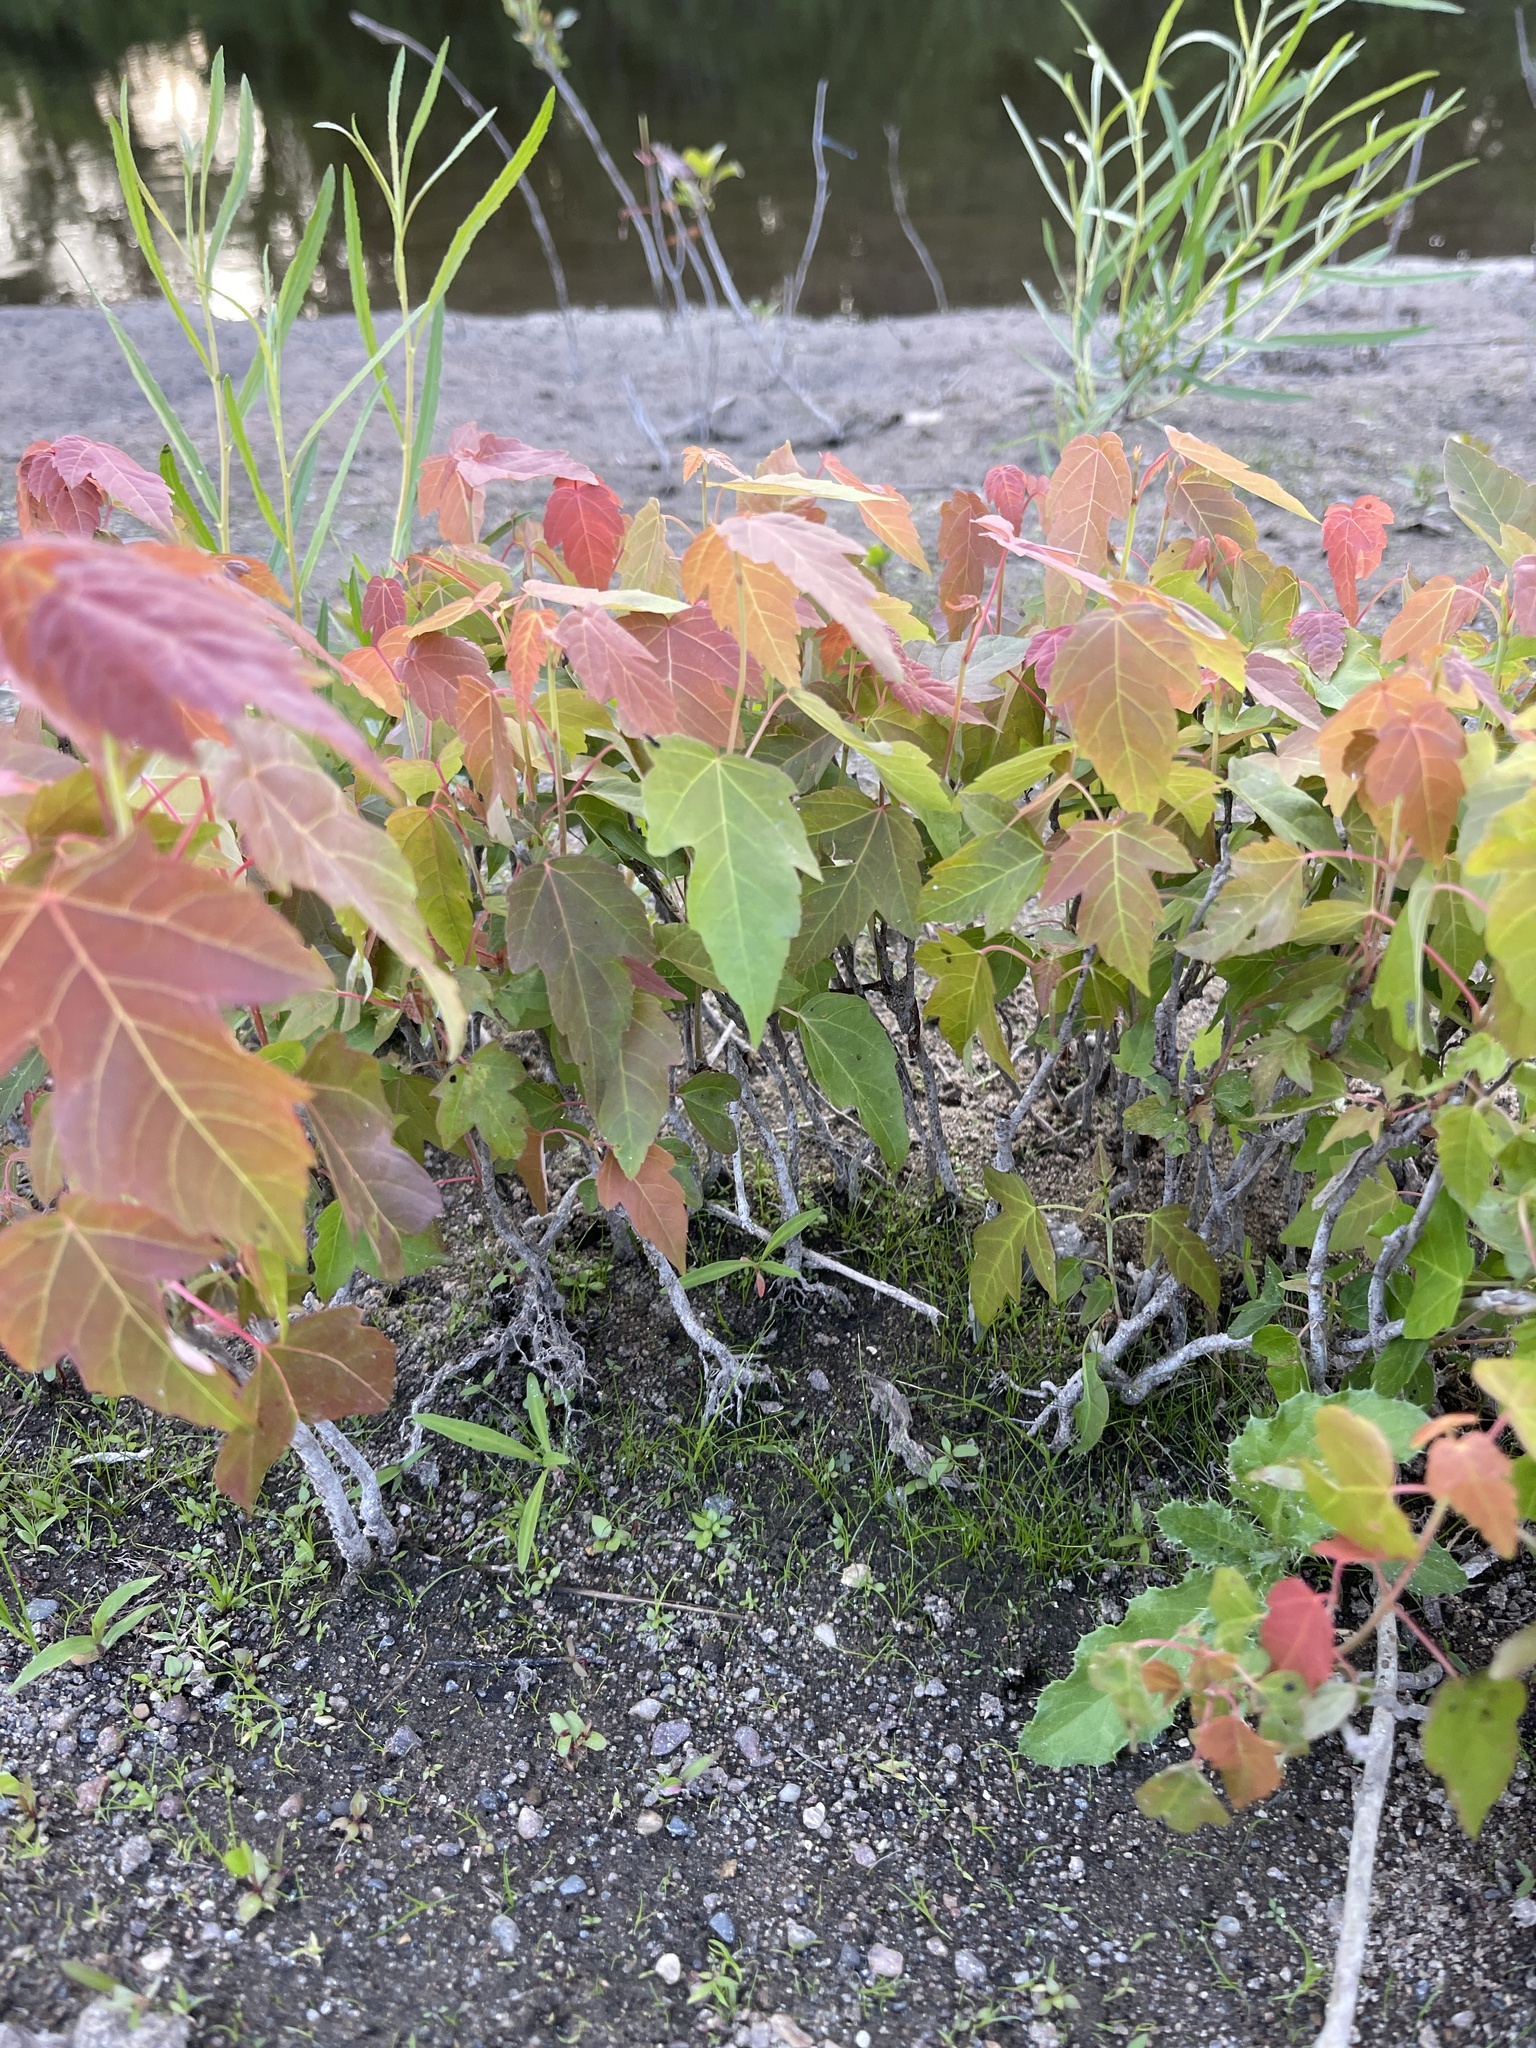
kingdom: Plantae
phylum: Tracheophyta
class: Magnoliopsida
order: Sapindales
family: Sapindaceae
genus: Acer
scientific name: Acer rubrum
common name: Red maple
